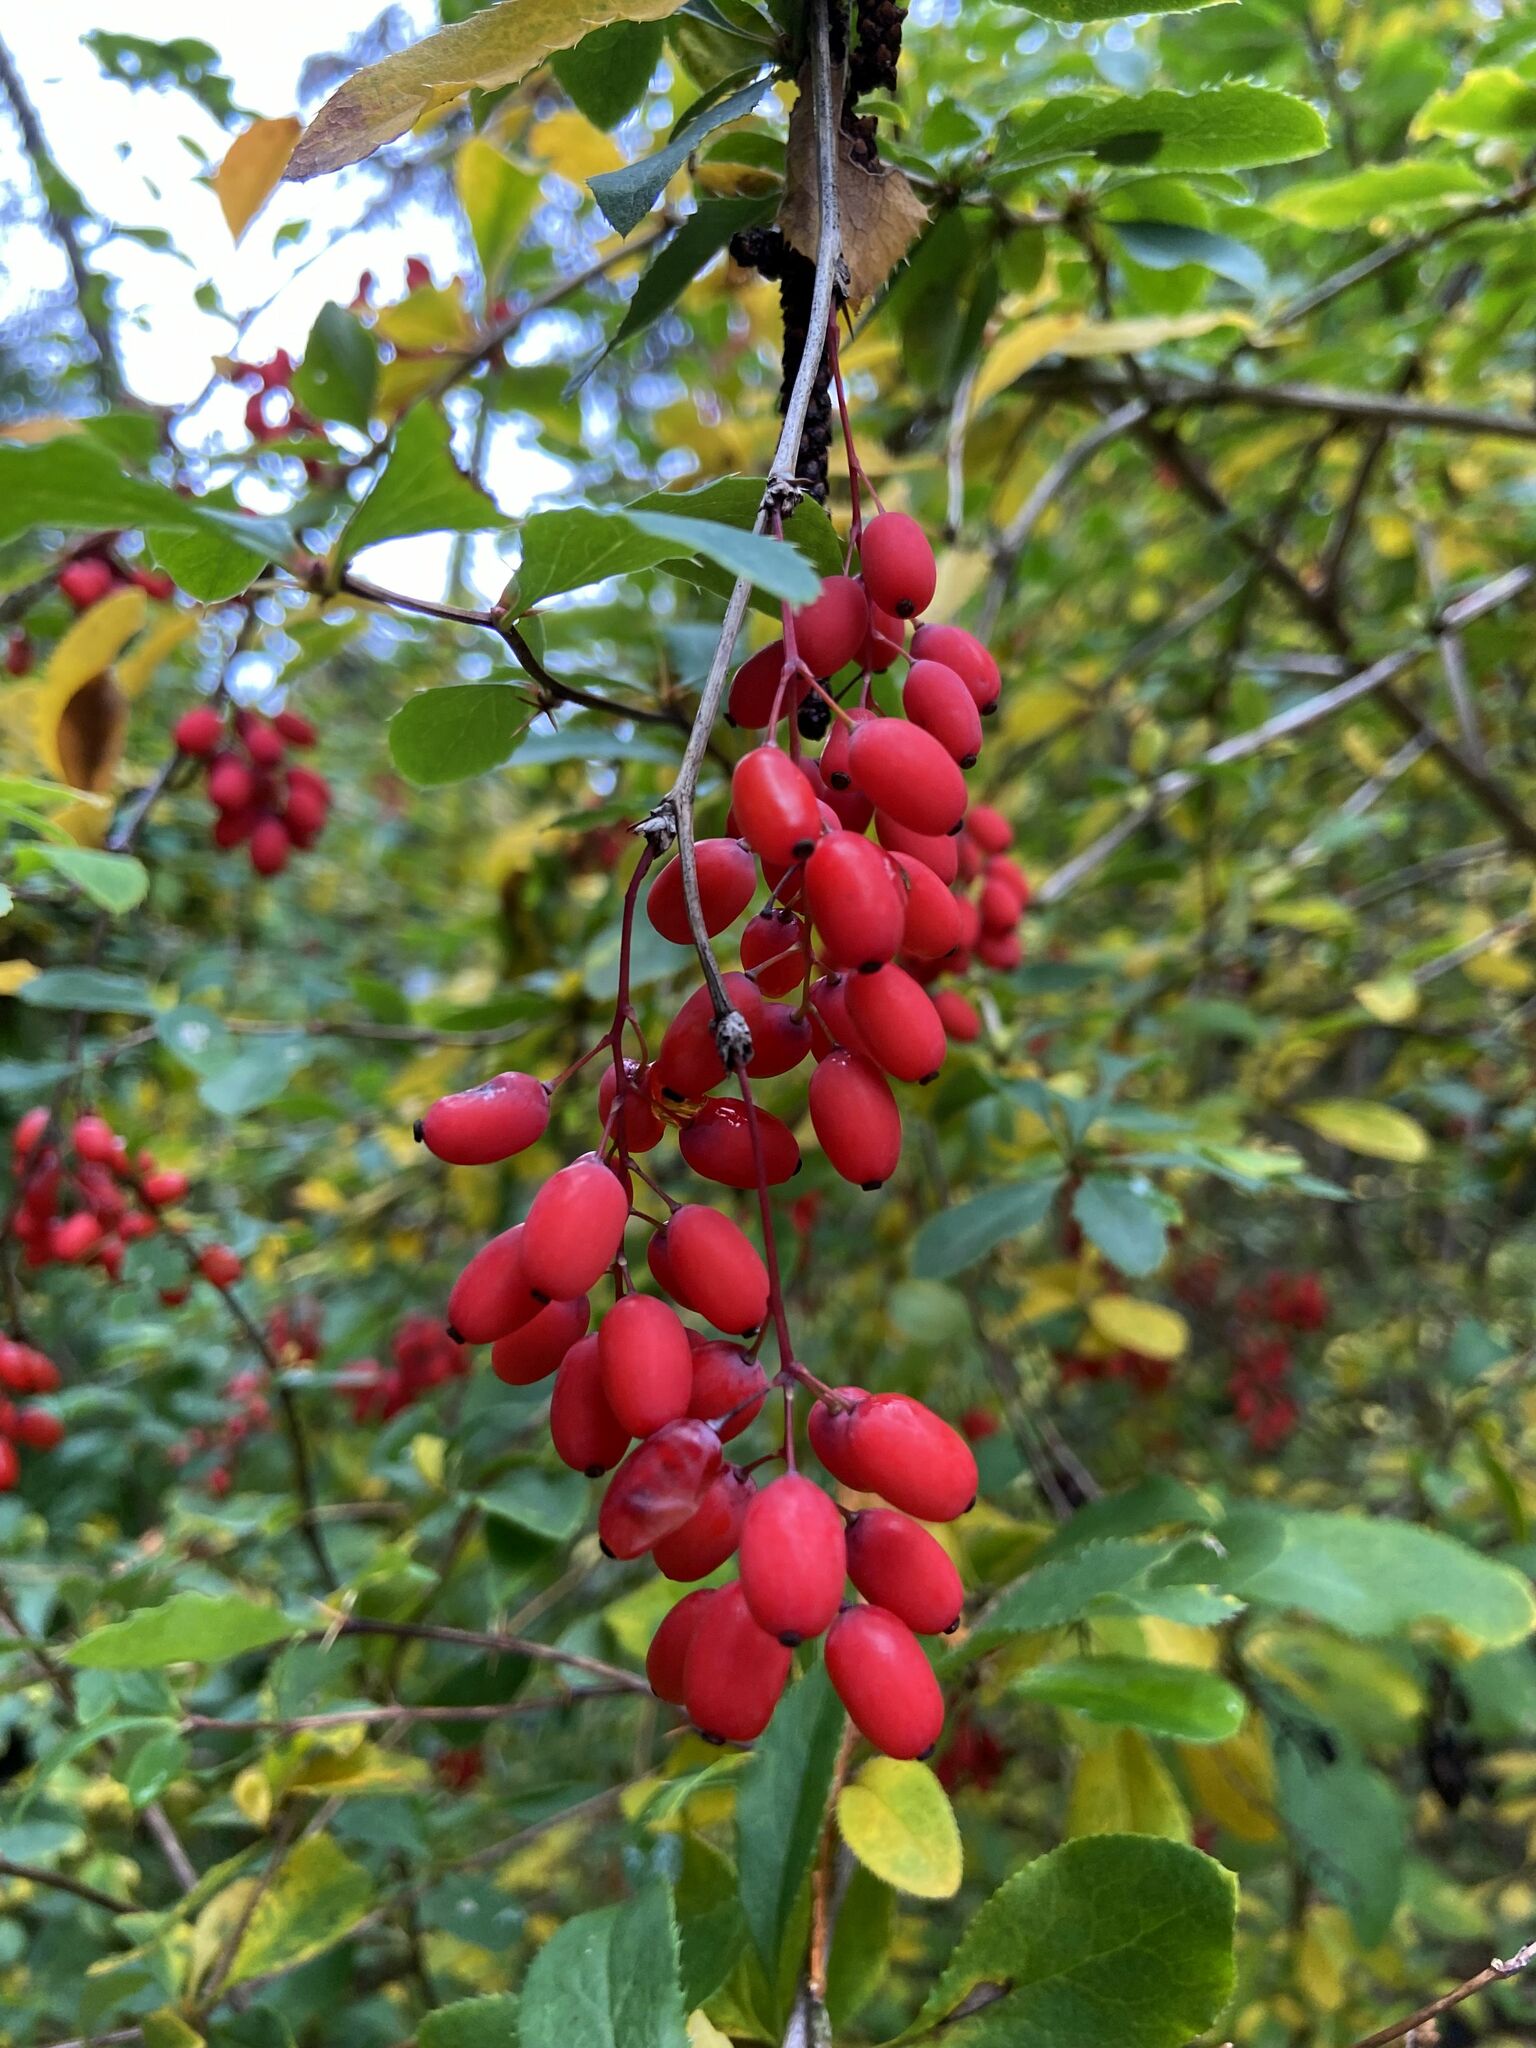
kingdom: Plantae
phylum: Tracheophyta
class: Magnoliopsida
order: Ranunculales
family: Berberidaceae
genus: Berberis
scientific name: Berberis vulgaris
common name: Barberry
